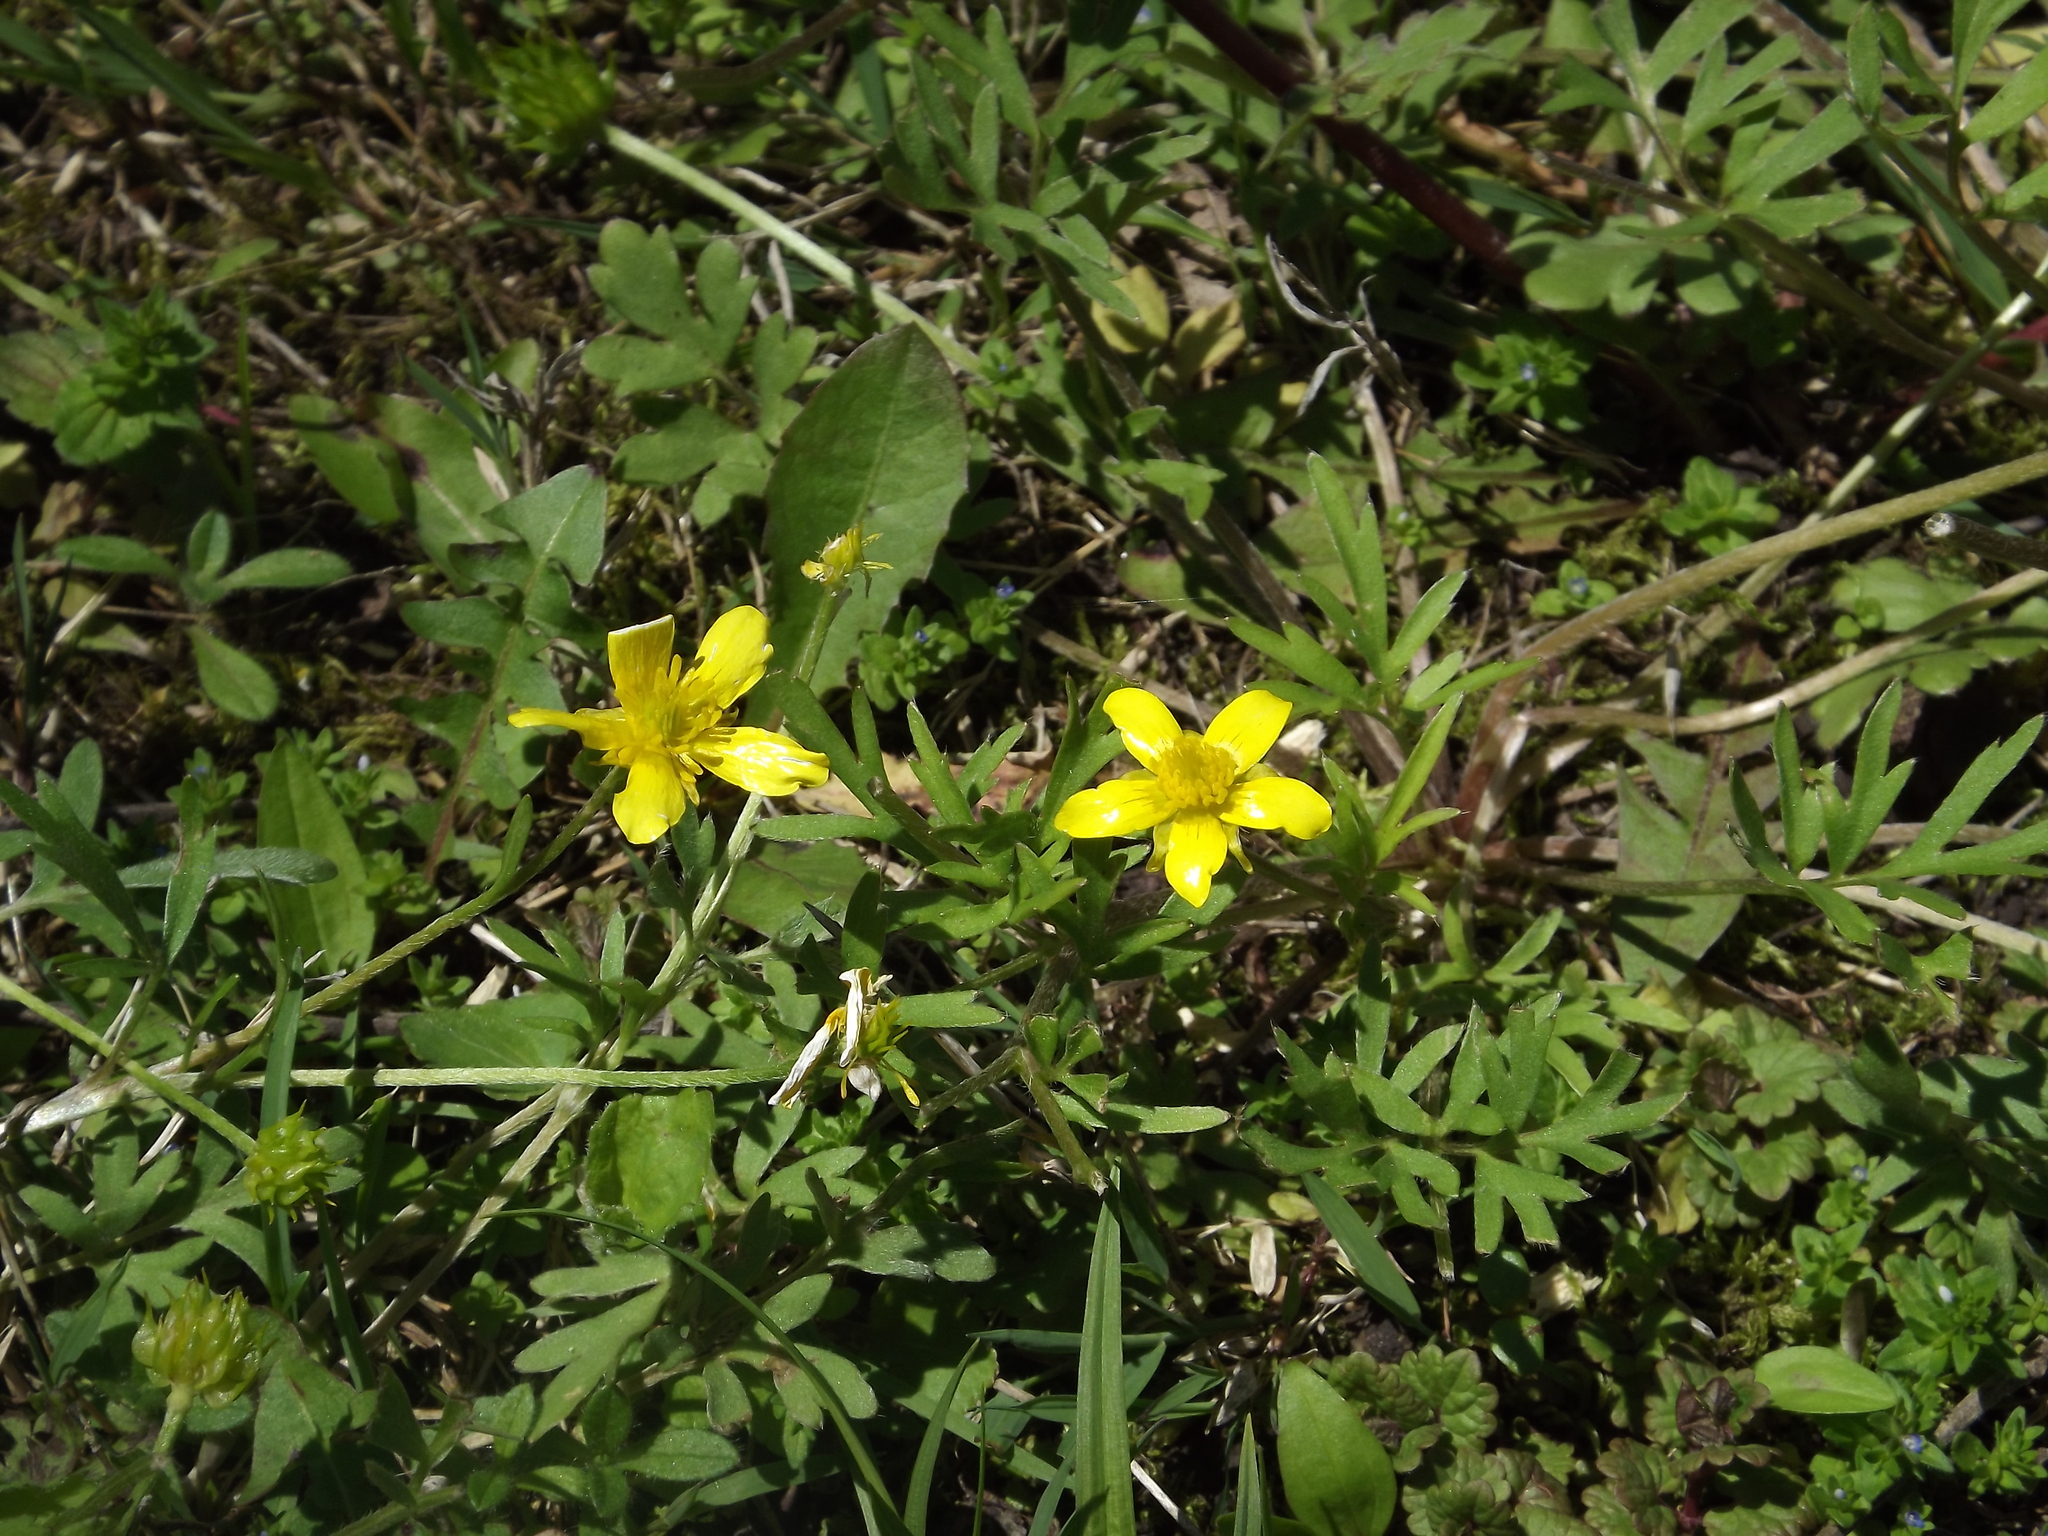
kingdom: Plantae
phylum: Tracheophyta
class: Magnoliopsida
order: Ranunculales
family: Ranunculaceae
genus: Ranunculus
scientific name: Ranunculus fascicularis
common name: Early buttercup
